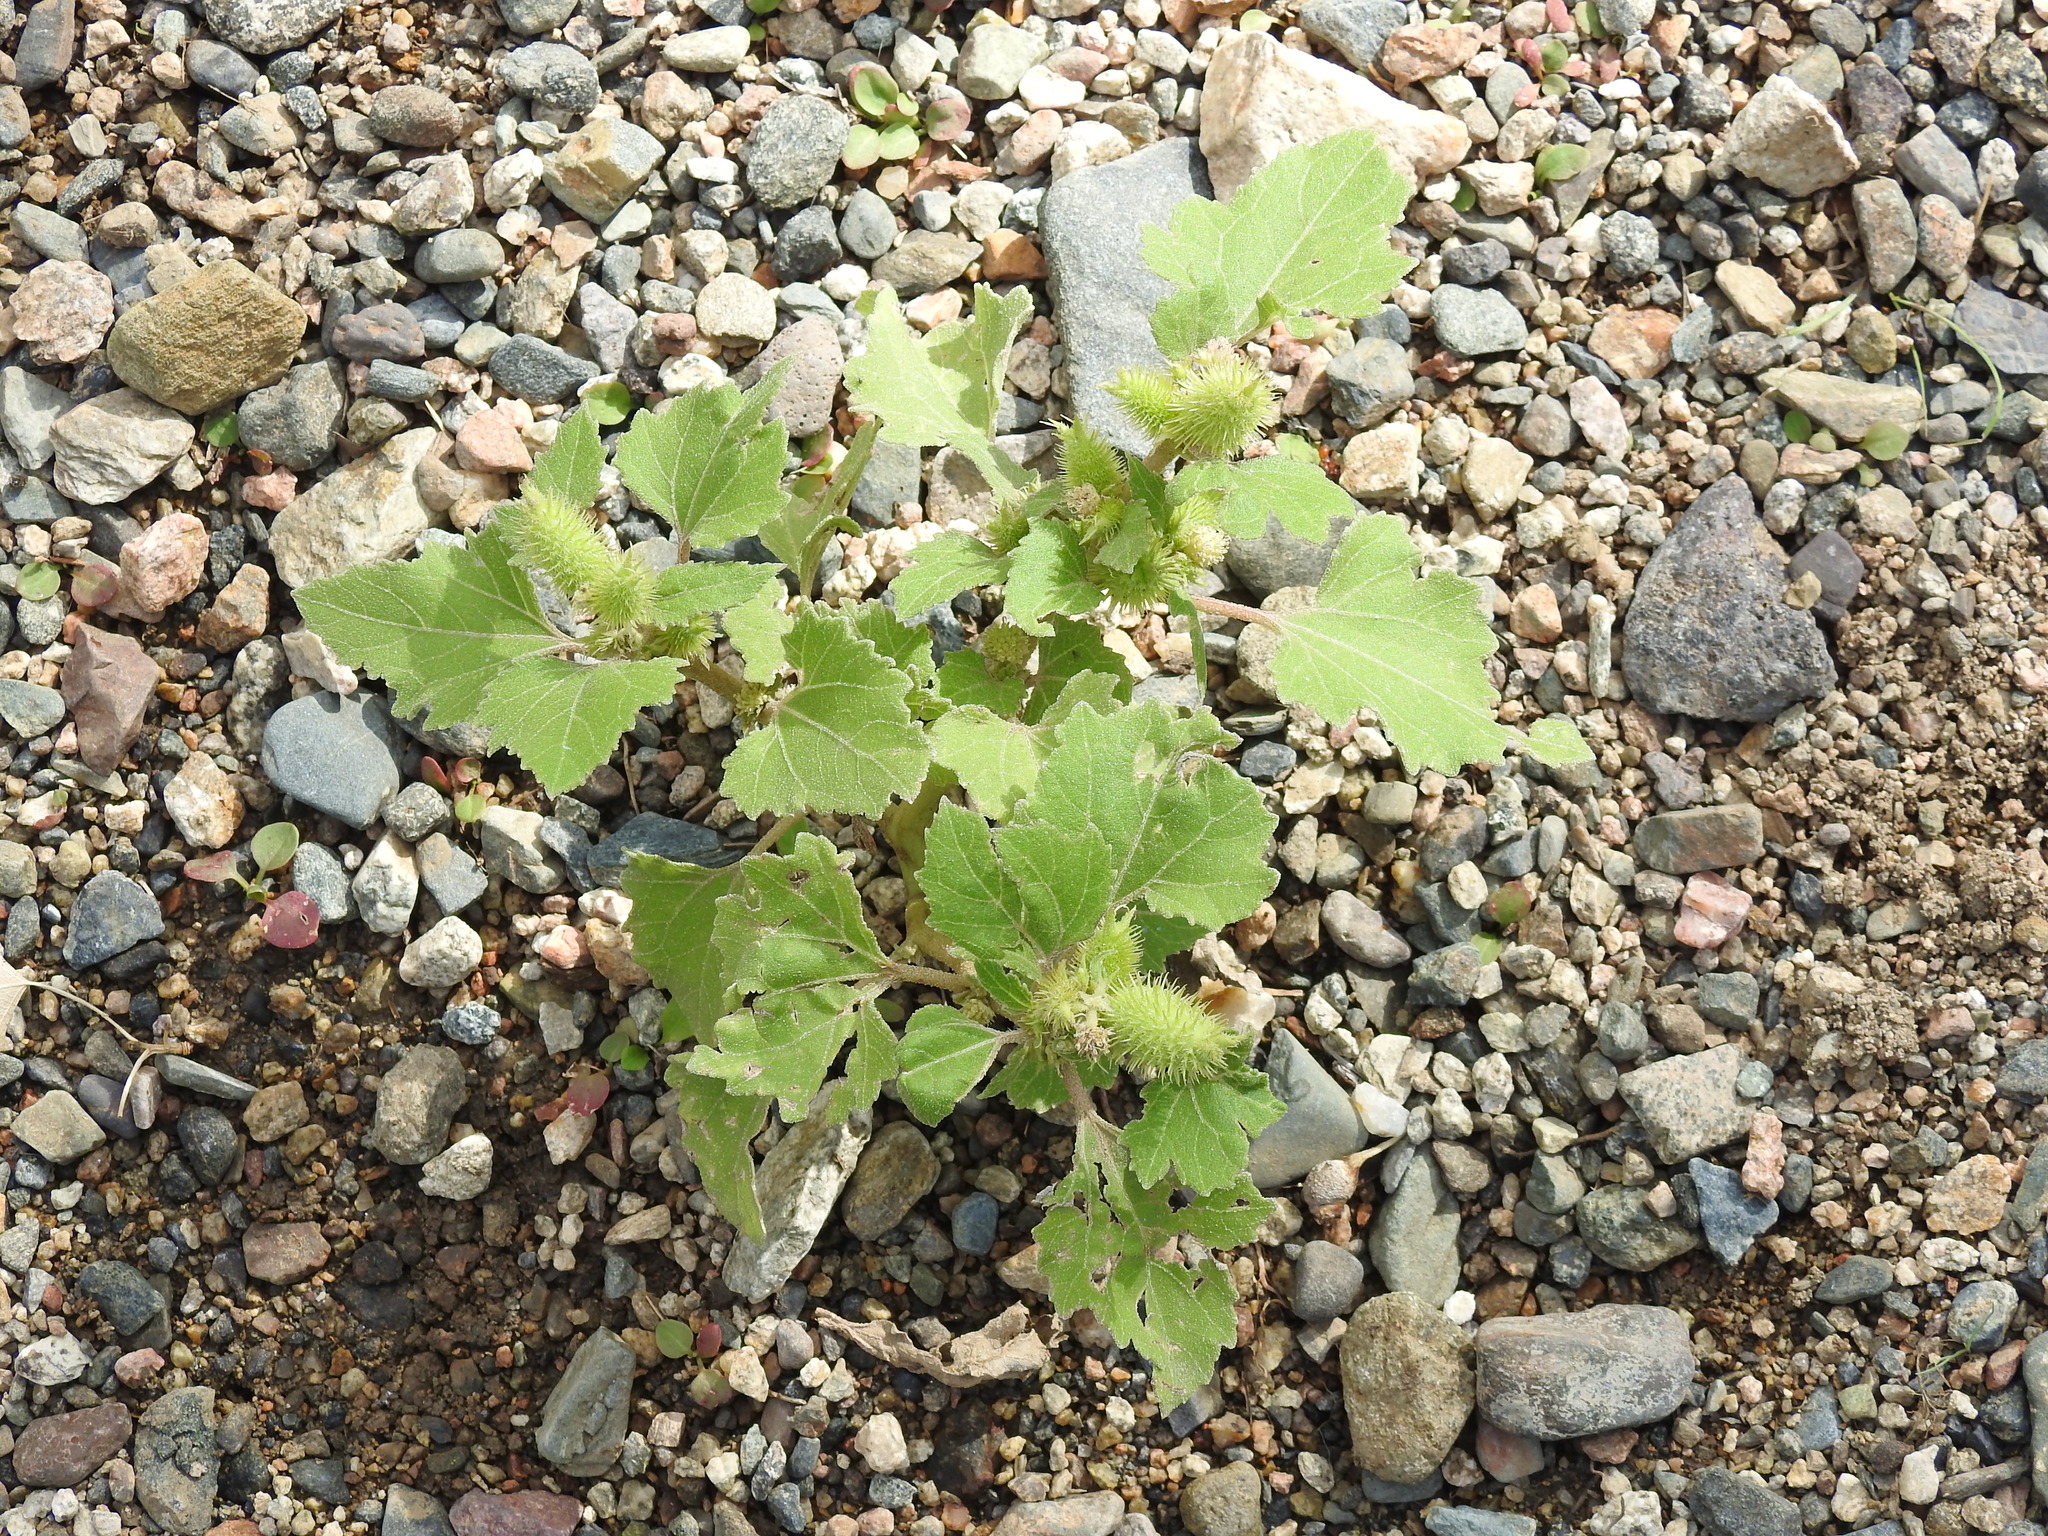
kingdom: Plantae
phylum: Tracheophyta
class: Magnoliopsida
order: Asterales
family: Asteraceae
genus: Xanthium
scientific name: Xanthium strumarium
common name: Rough cocklebur
